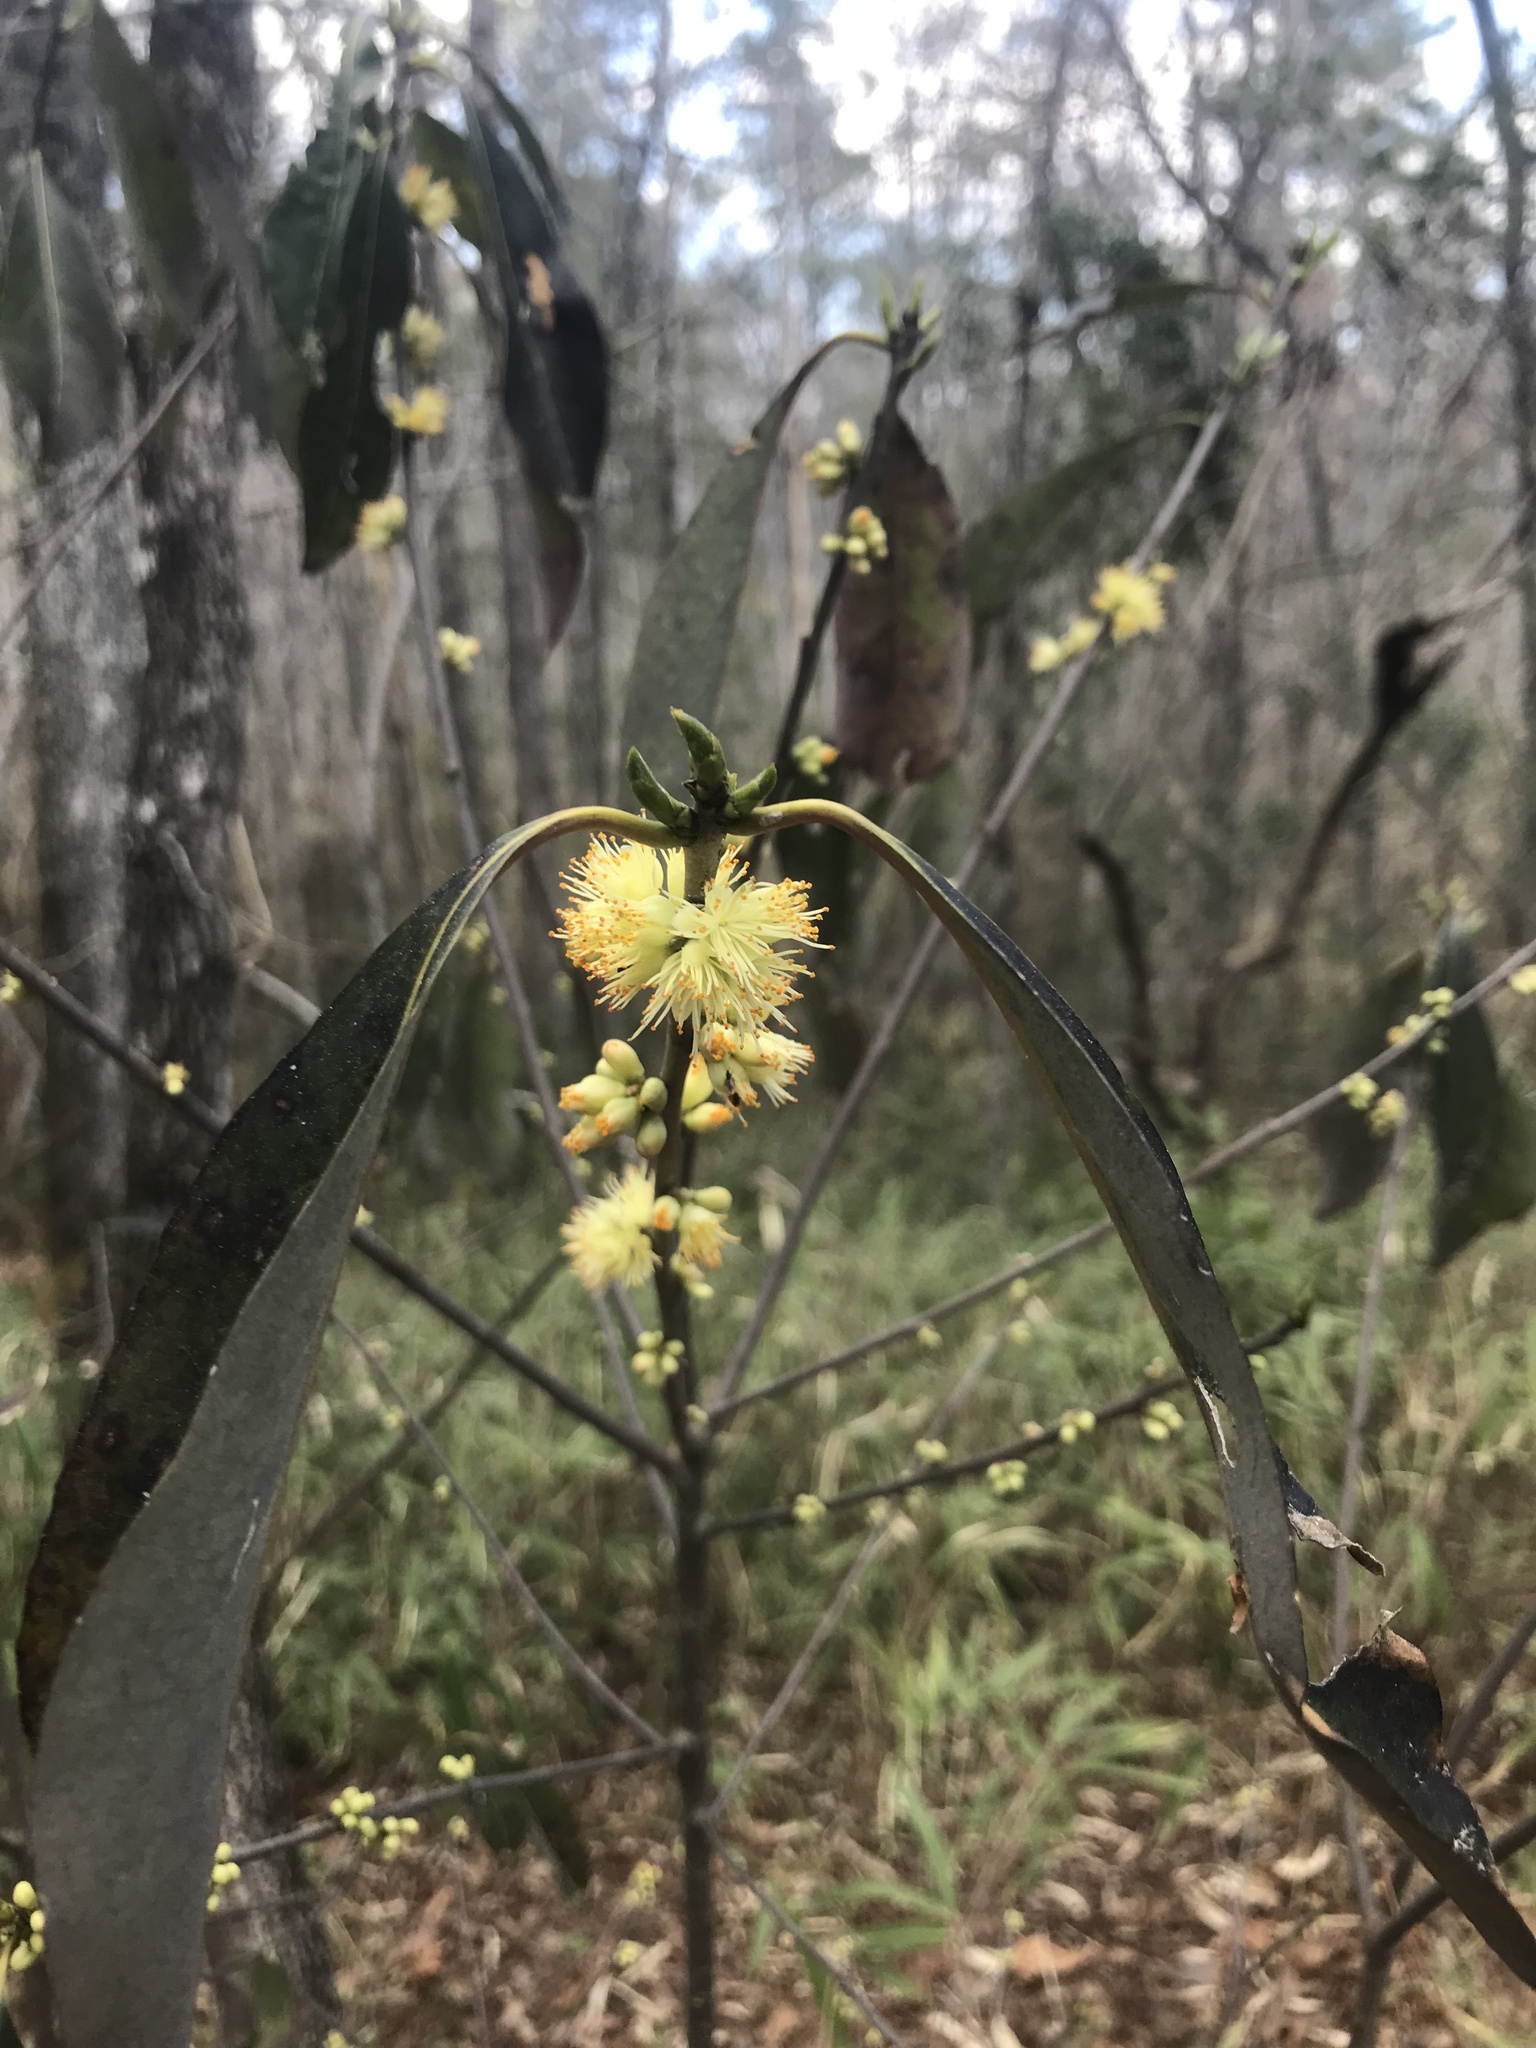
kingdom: Plantae
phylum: Tracheophyta
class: Magnoliopsida
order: Ericales
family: Symplocaceae
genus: Symplocos
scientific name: Symplocos tinctoria
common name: Horse-sugar
